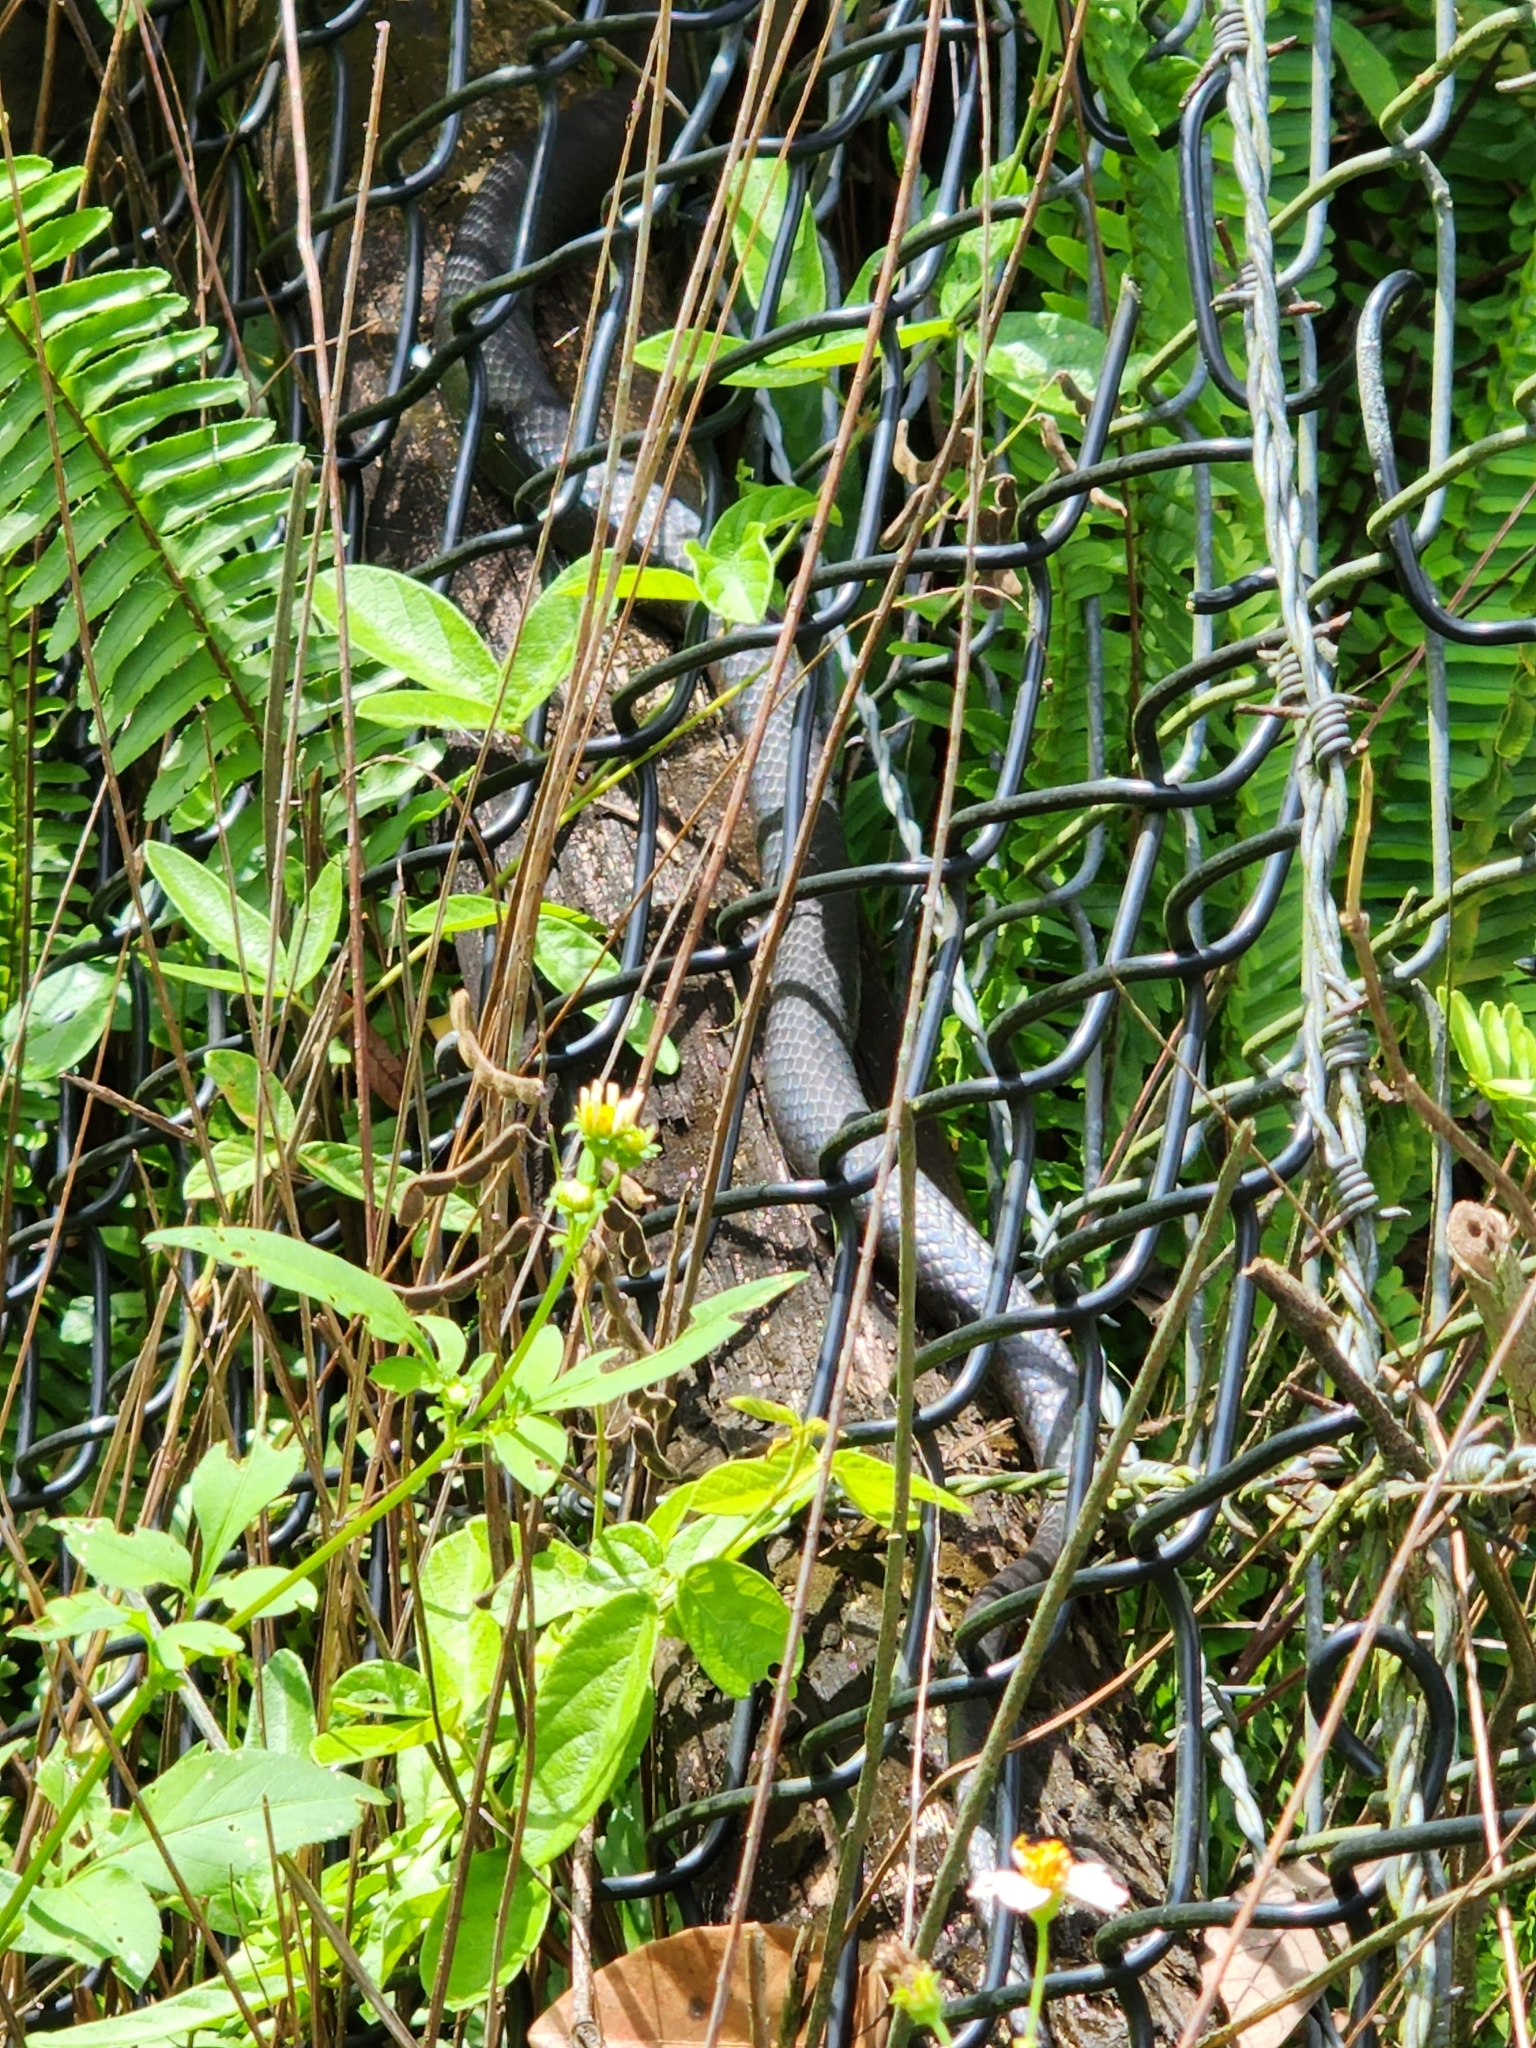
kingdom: Animalia
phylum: Chordata
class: Squamata
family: Colubridae
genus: Coluber
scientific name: Coluber constrictor
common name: Eastern racer
